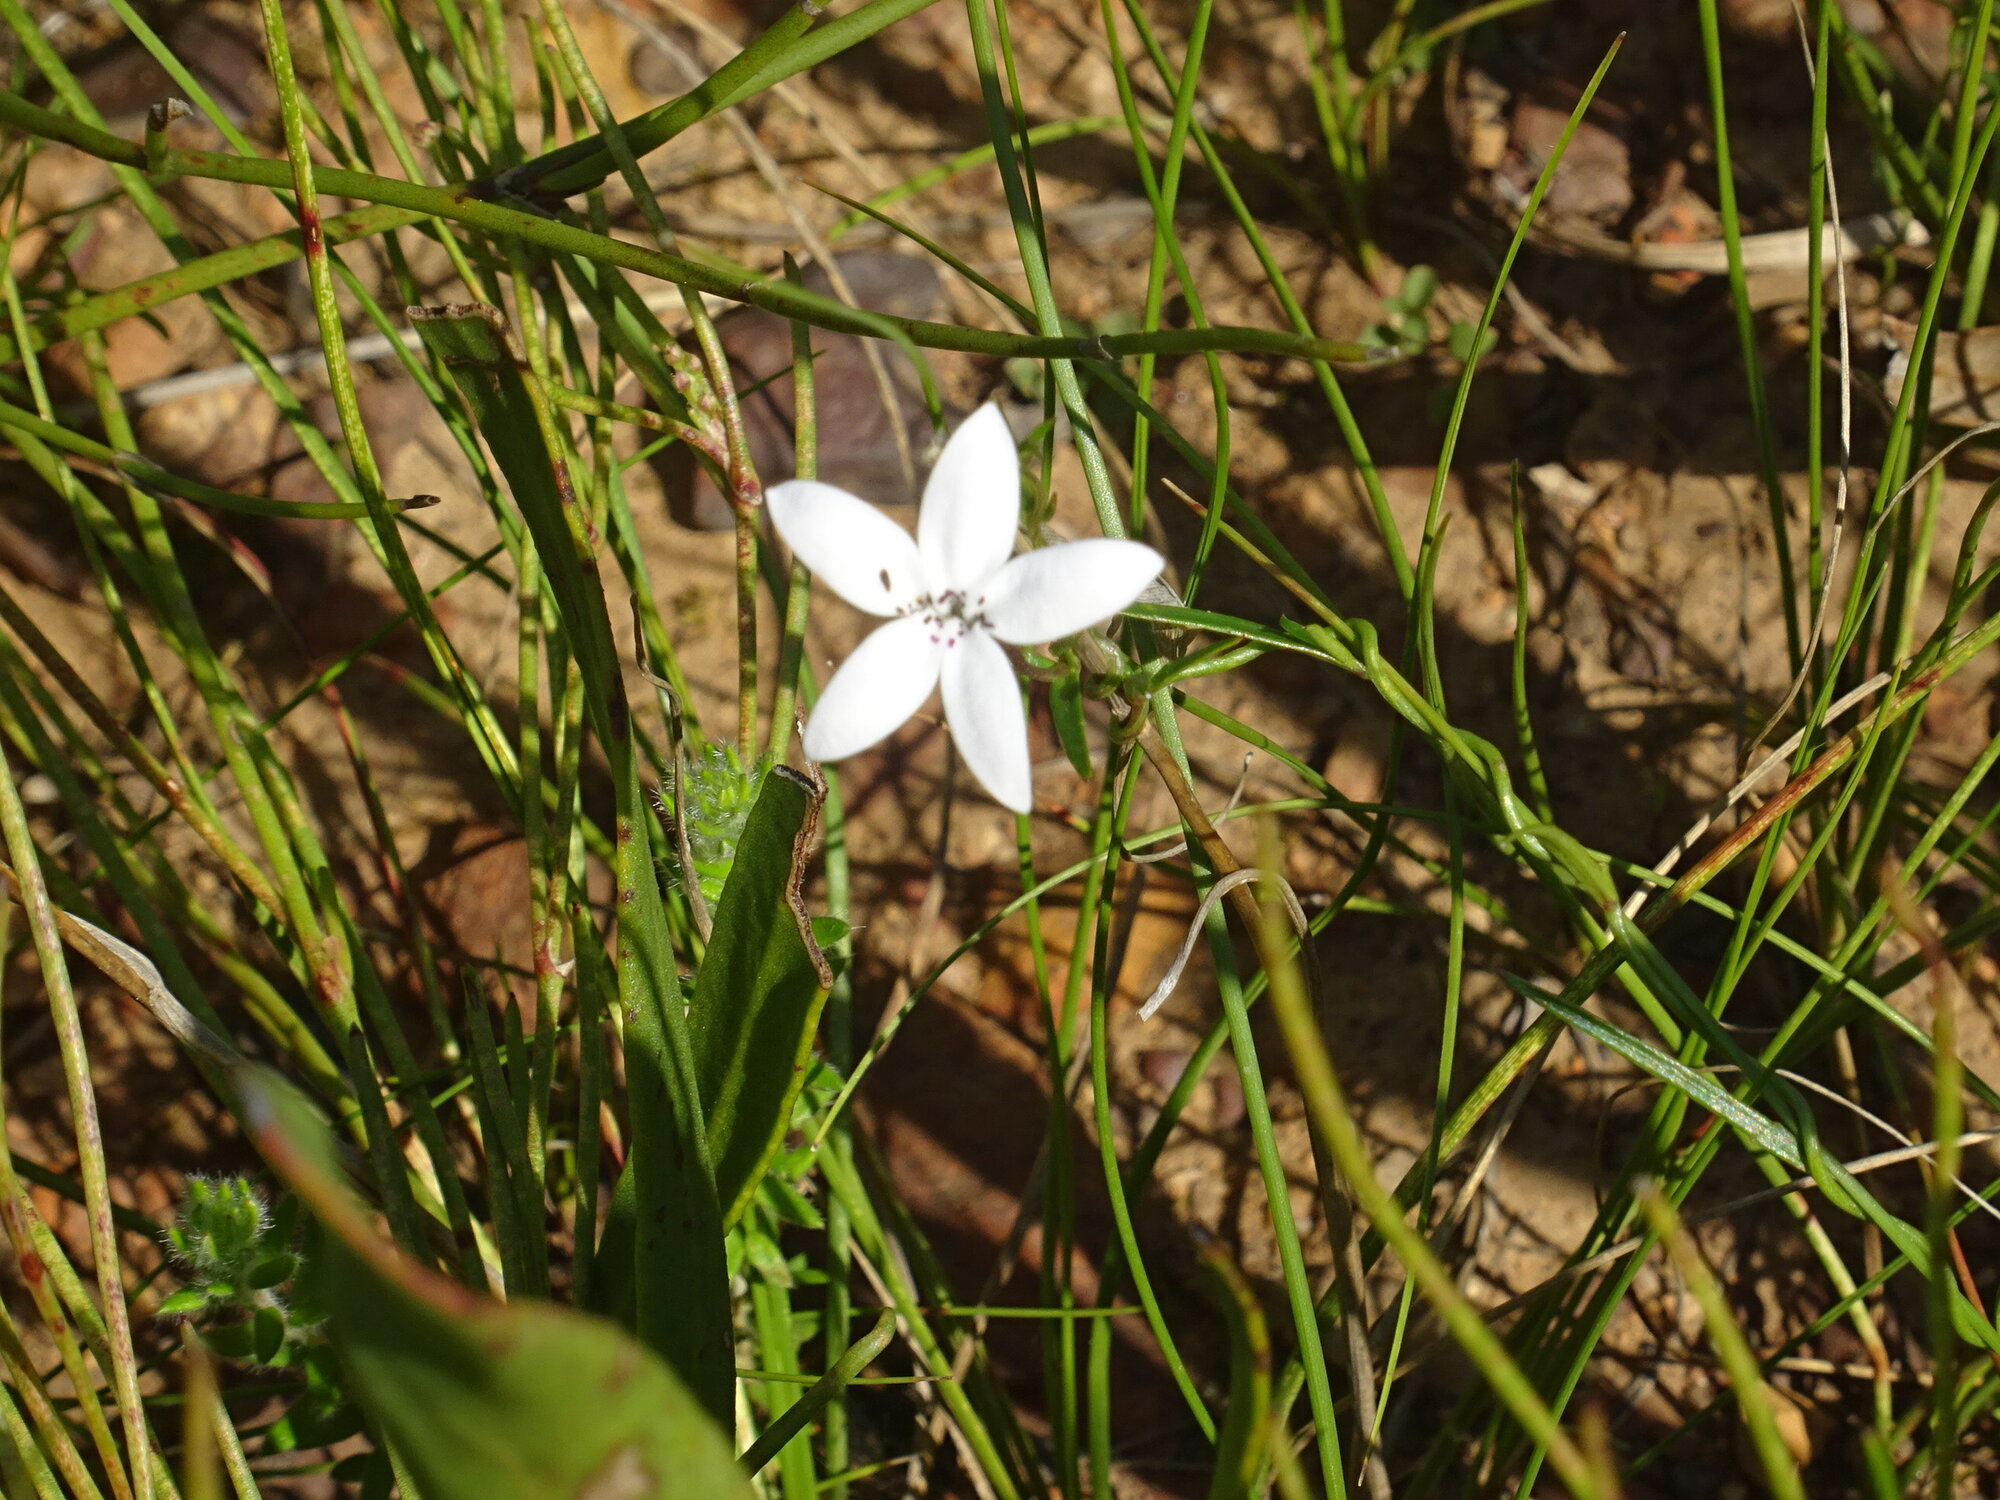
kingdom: Plantae
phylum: Tracheophyta
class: Magnoliopsida
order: Asterales
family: Campanulaceae
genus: Cyphia
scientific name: Cyphia volubilis
